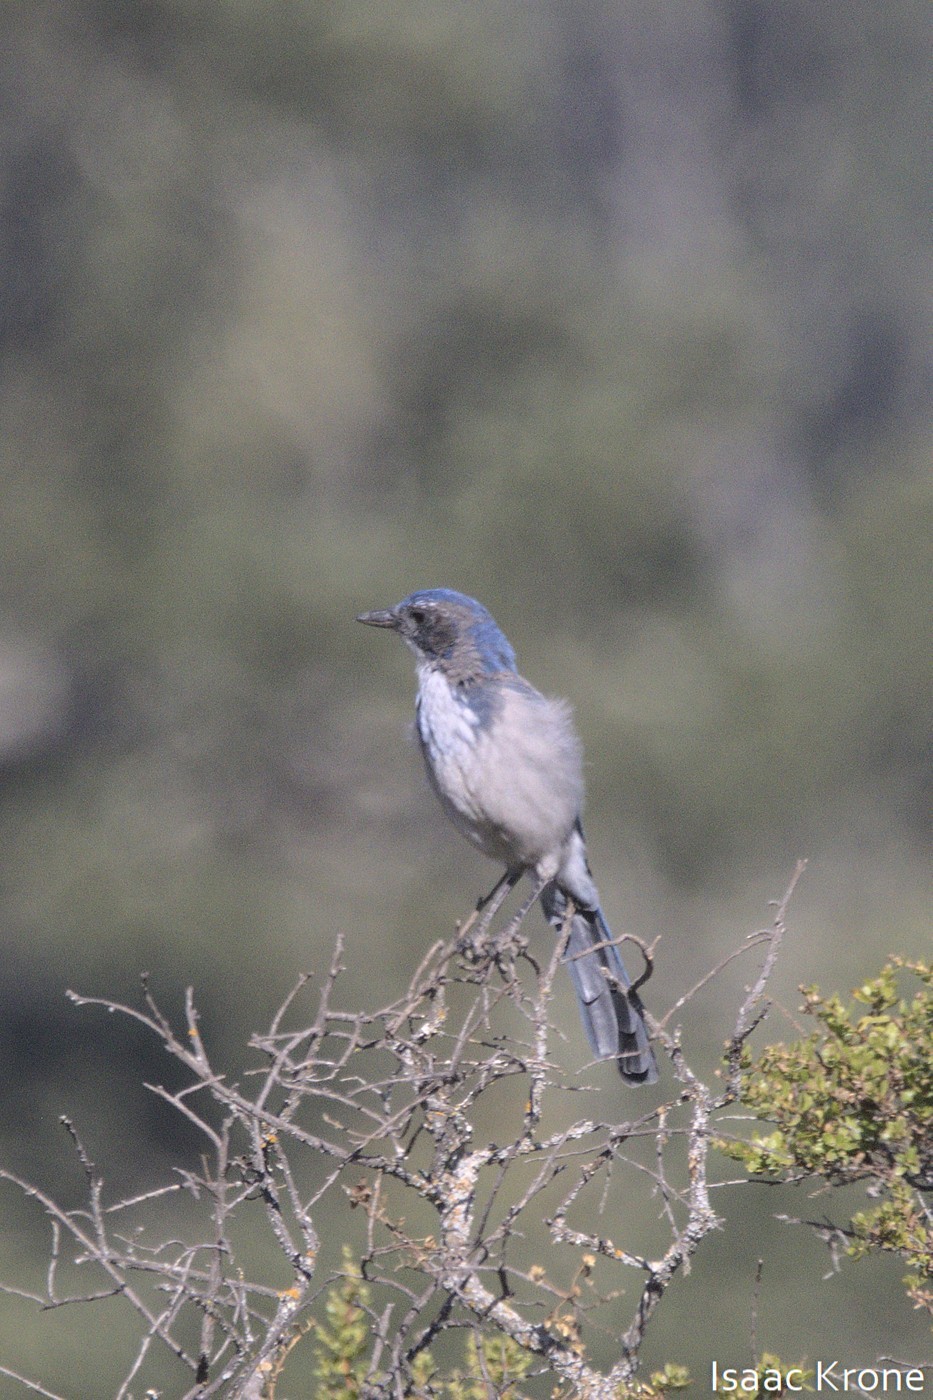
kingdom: Animalia
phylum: Chordata
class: Aves
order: Passeriformes
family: Corvidae
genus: Aphelocoma
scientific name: Aphelocoma californica
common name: California scrub-jay
